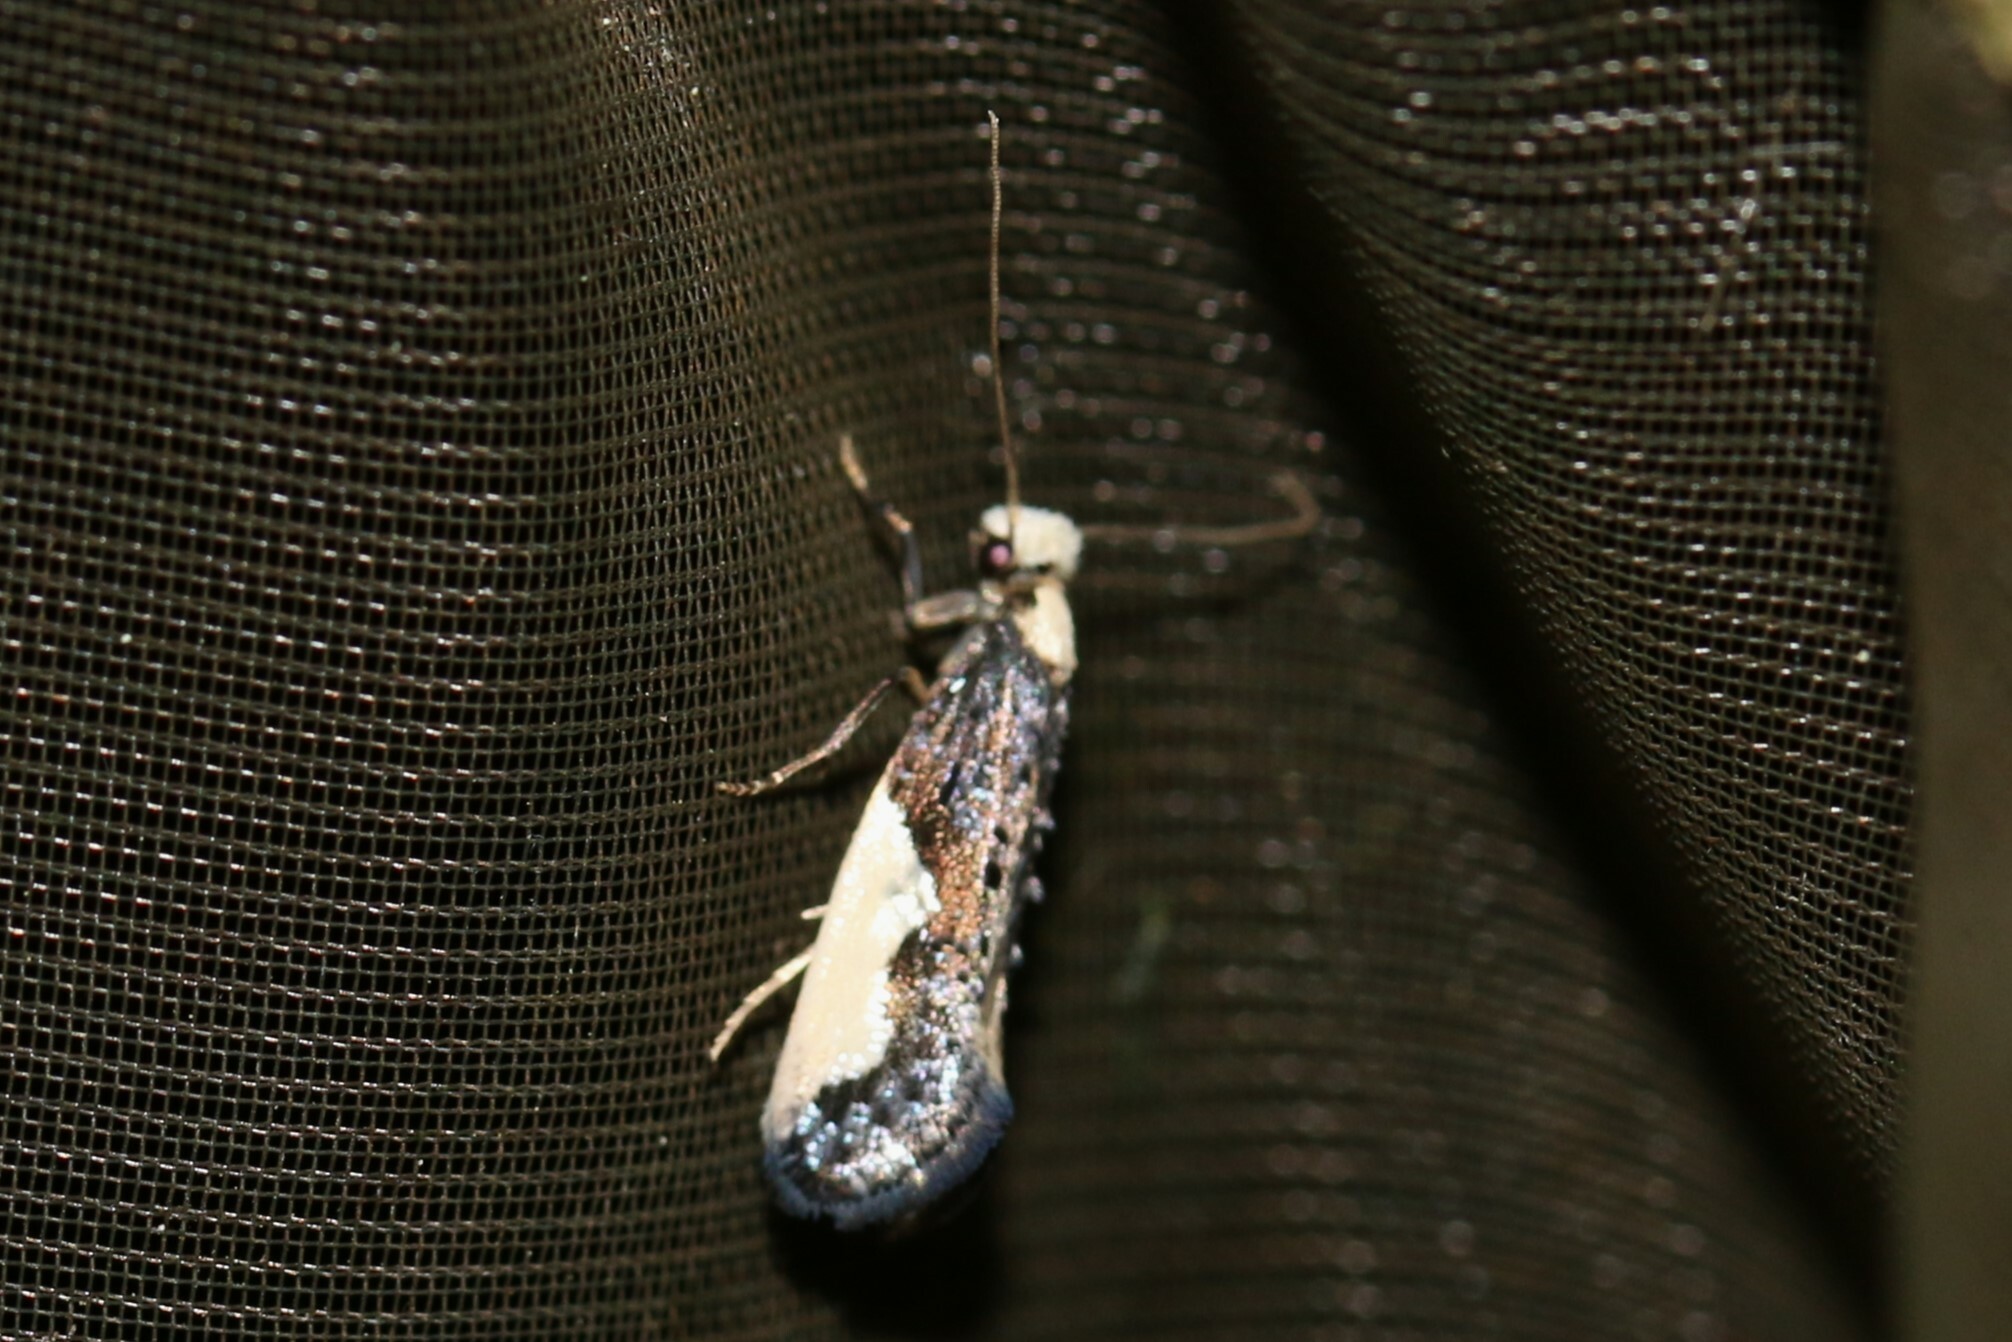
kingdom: Animalia
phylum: Arthropoda
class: Insecta
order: Lepidoptera
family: Tineidae
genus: Monopis
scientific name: Monopis monachella
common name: Moth
